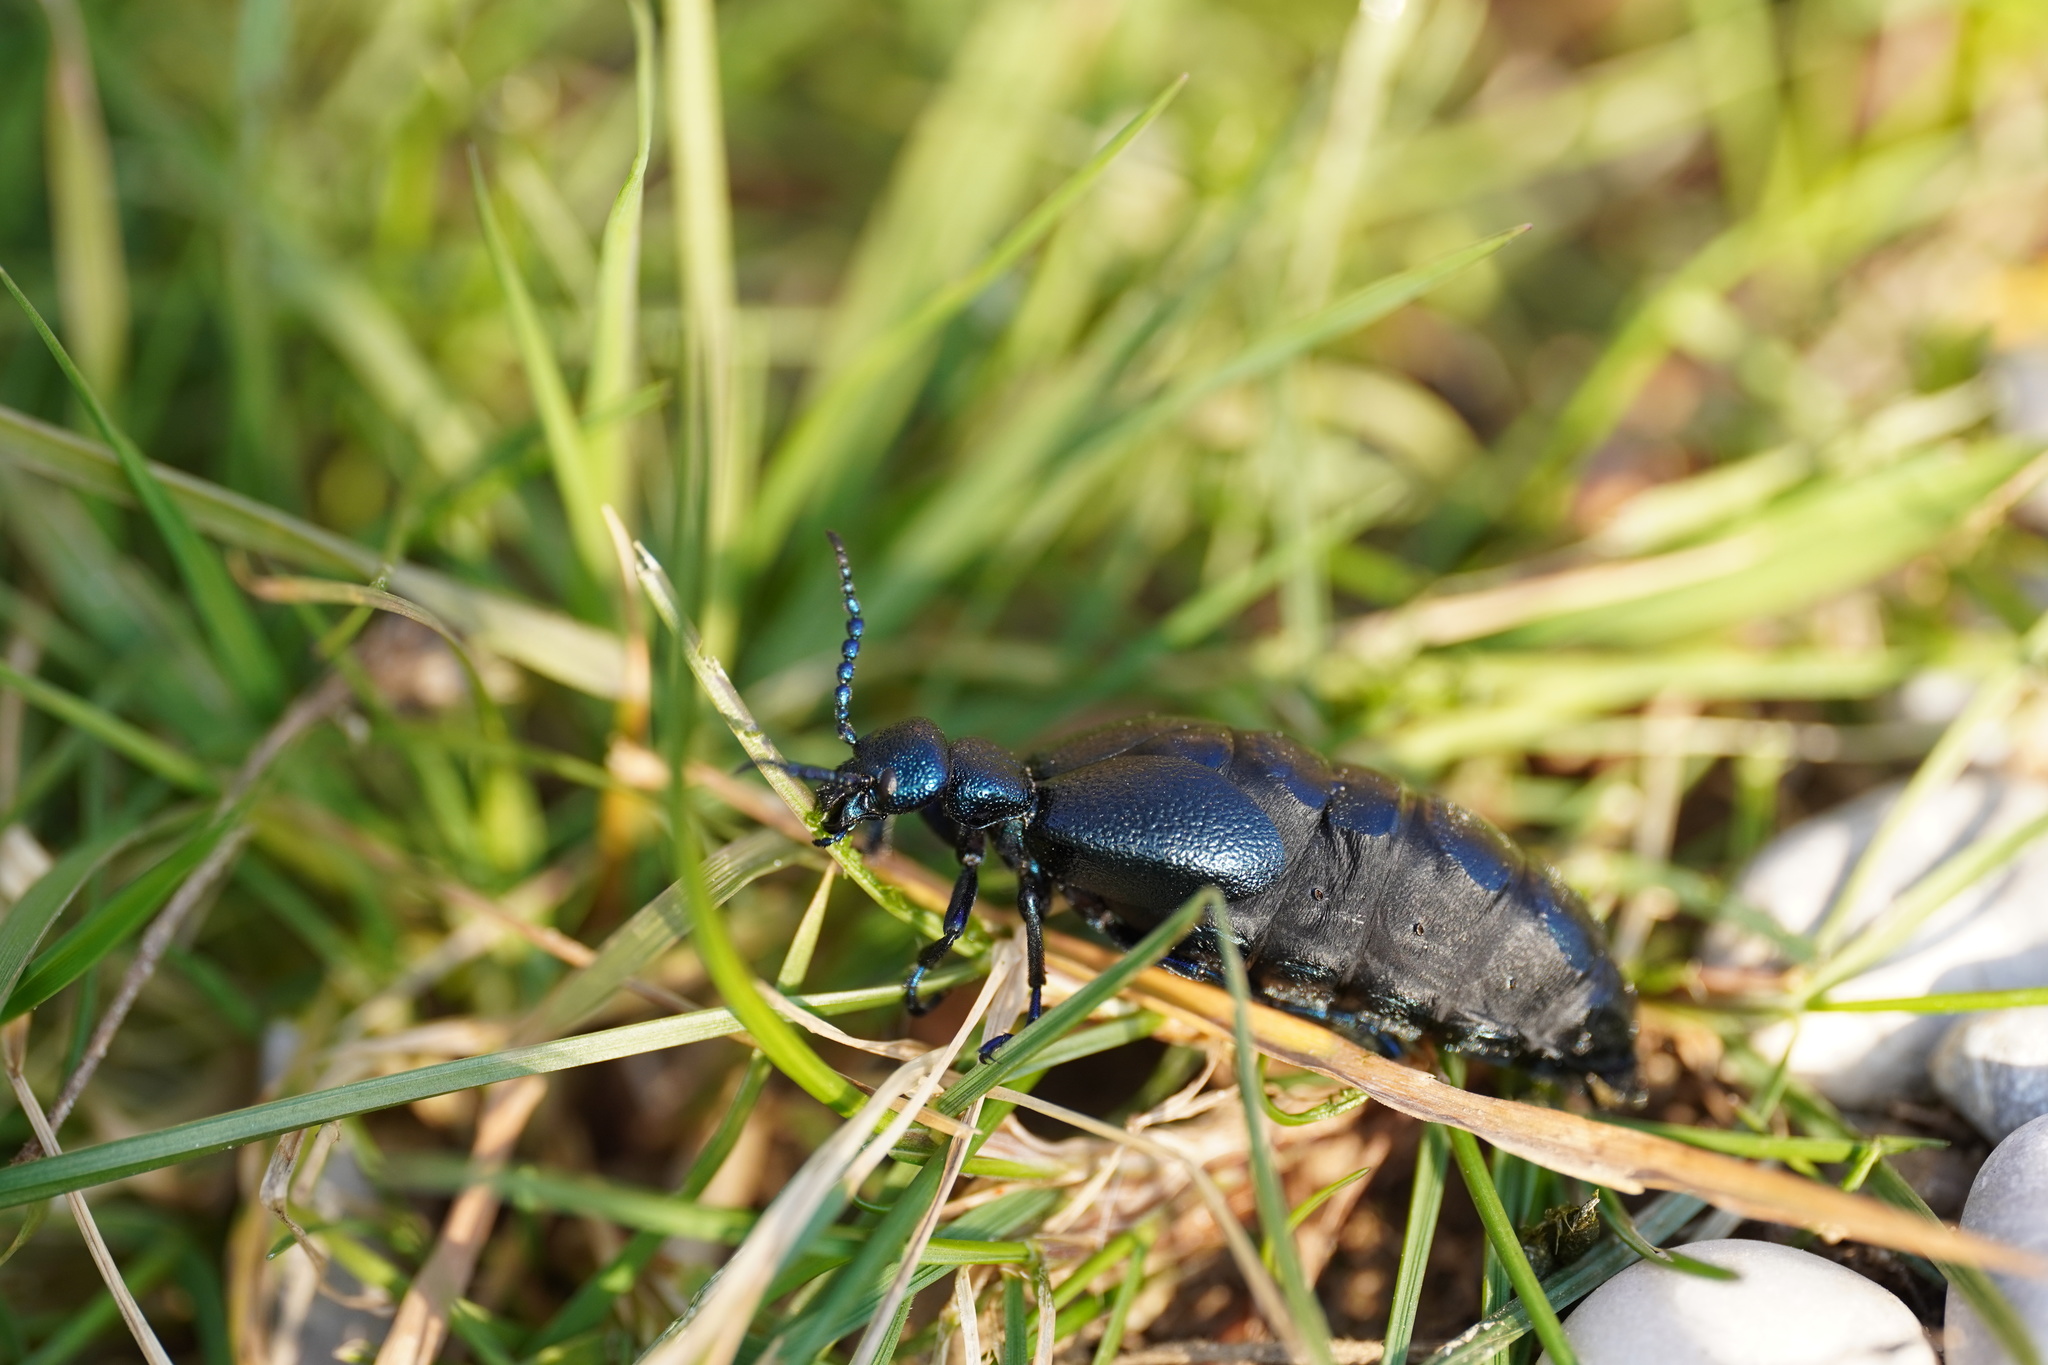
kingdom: Animalia
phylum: Arthropoda
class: Insecta
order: Coleoptera
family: Meloidae
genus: Meloe
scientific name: Meloe proscarabaeus
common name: Black oil-beetle
